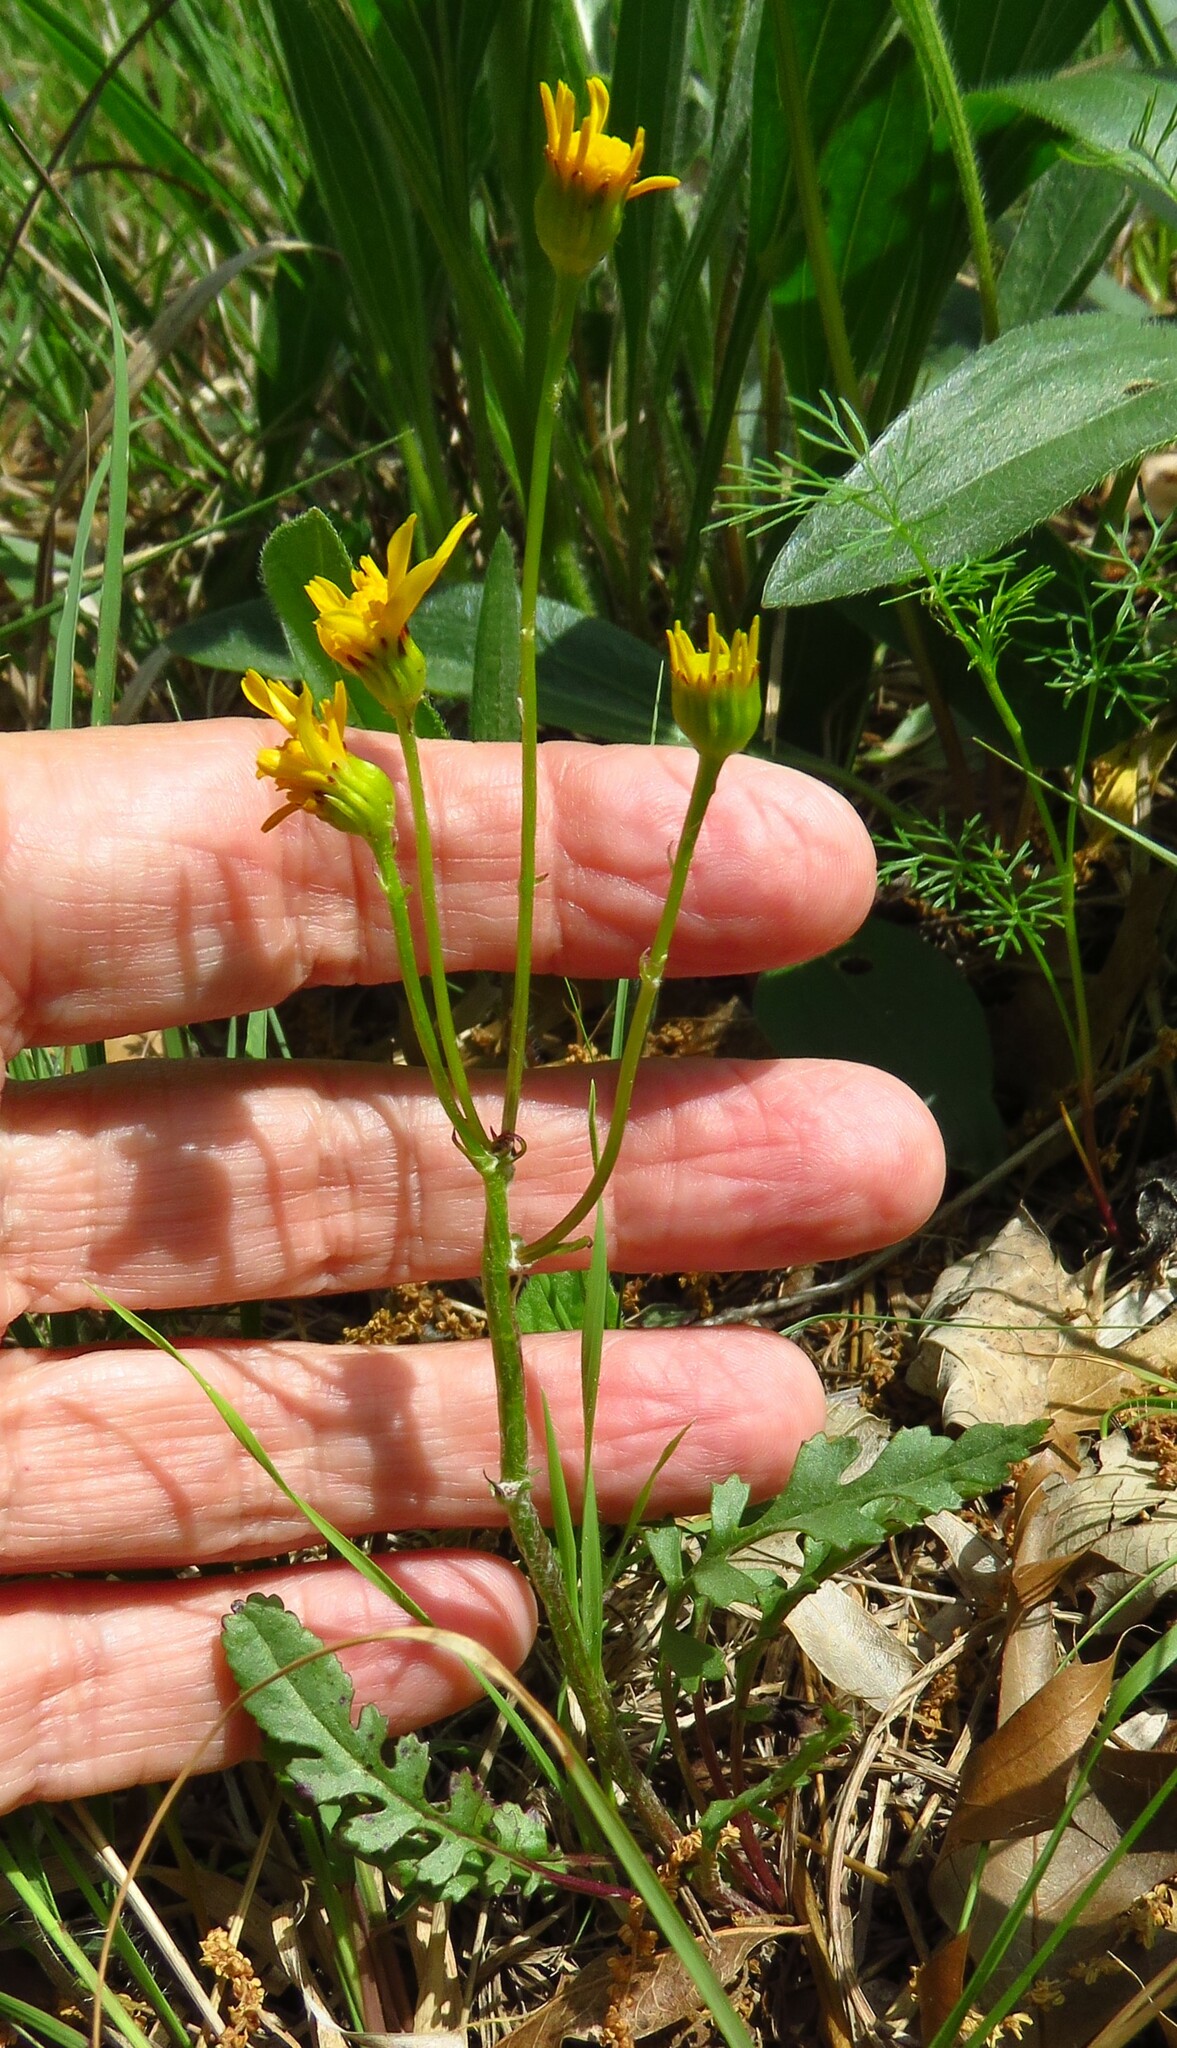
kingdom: Plantae
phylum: Tracheophyta
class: Magnoliopsida
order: Asterales
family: Asteraceae
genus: Packera
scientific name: Packera tampicana
